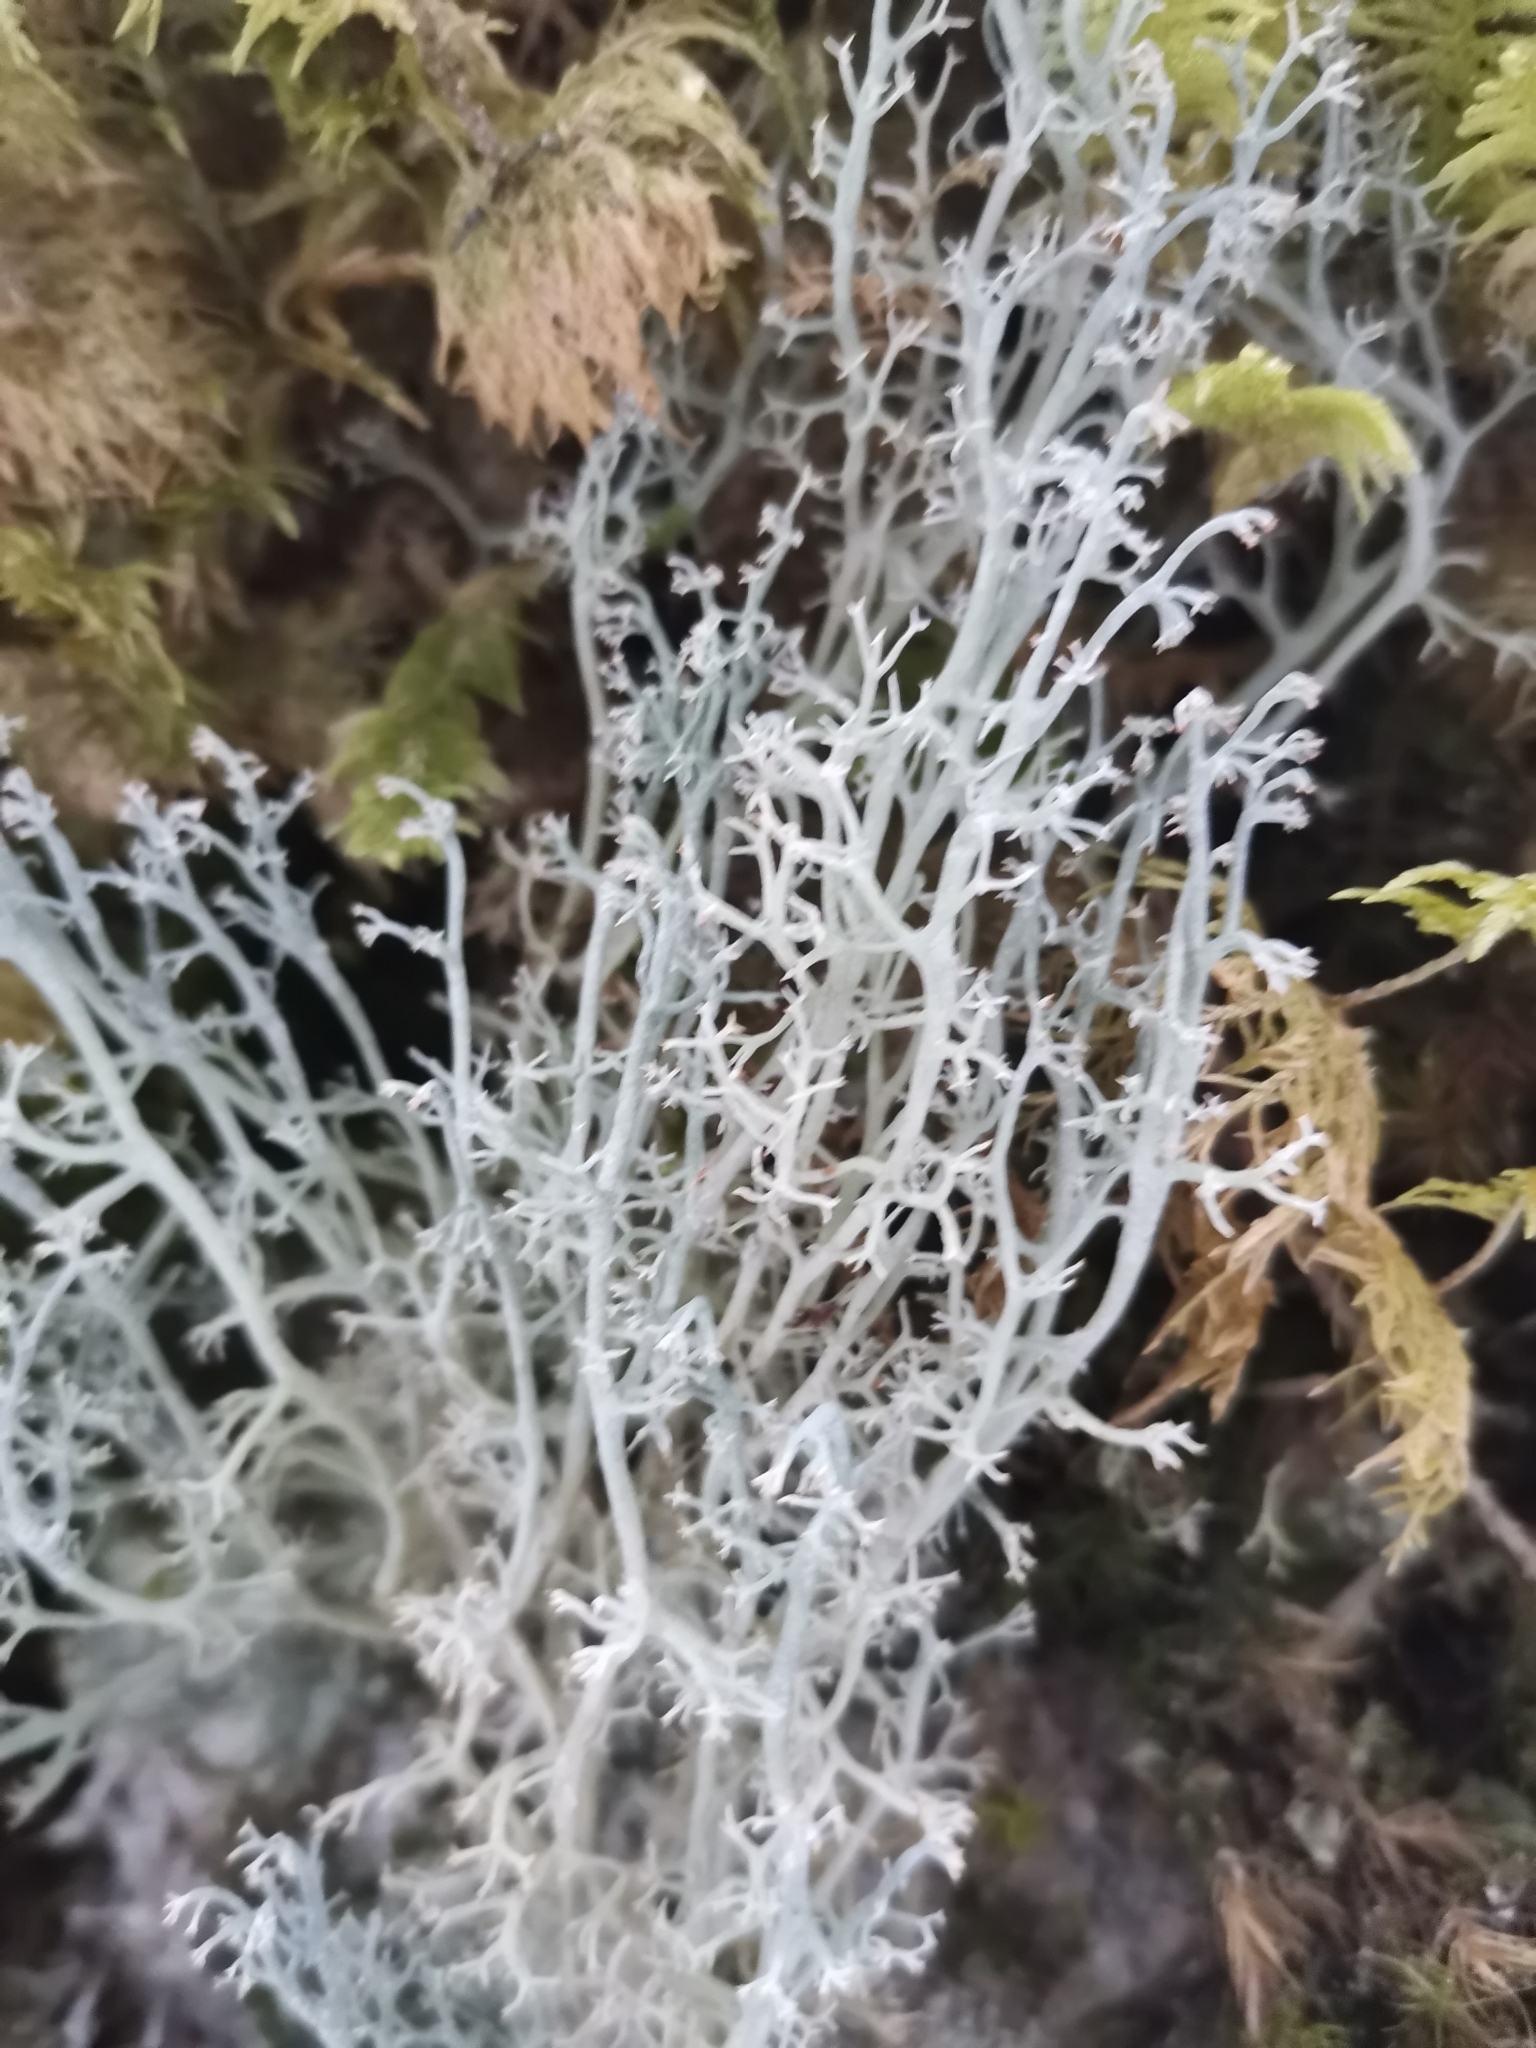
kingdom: Fungi
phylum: Ascomycota
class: Lecanoromycetes
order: Lecanorales
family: Cladoniaceae
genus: Cladonia
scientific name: Cladonia rangiferina
